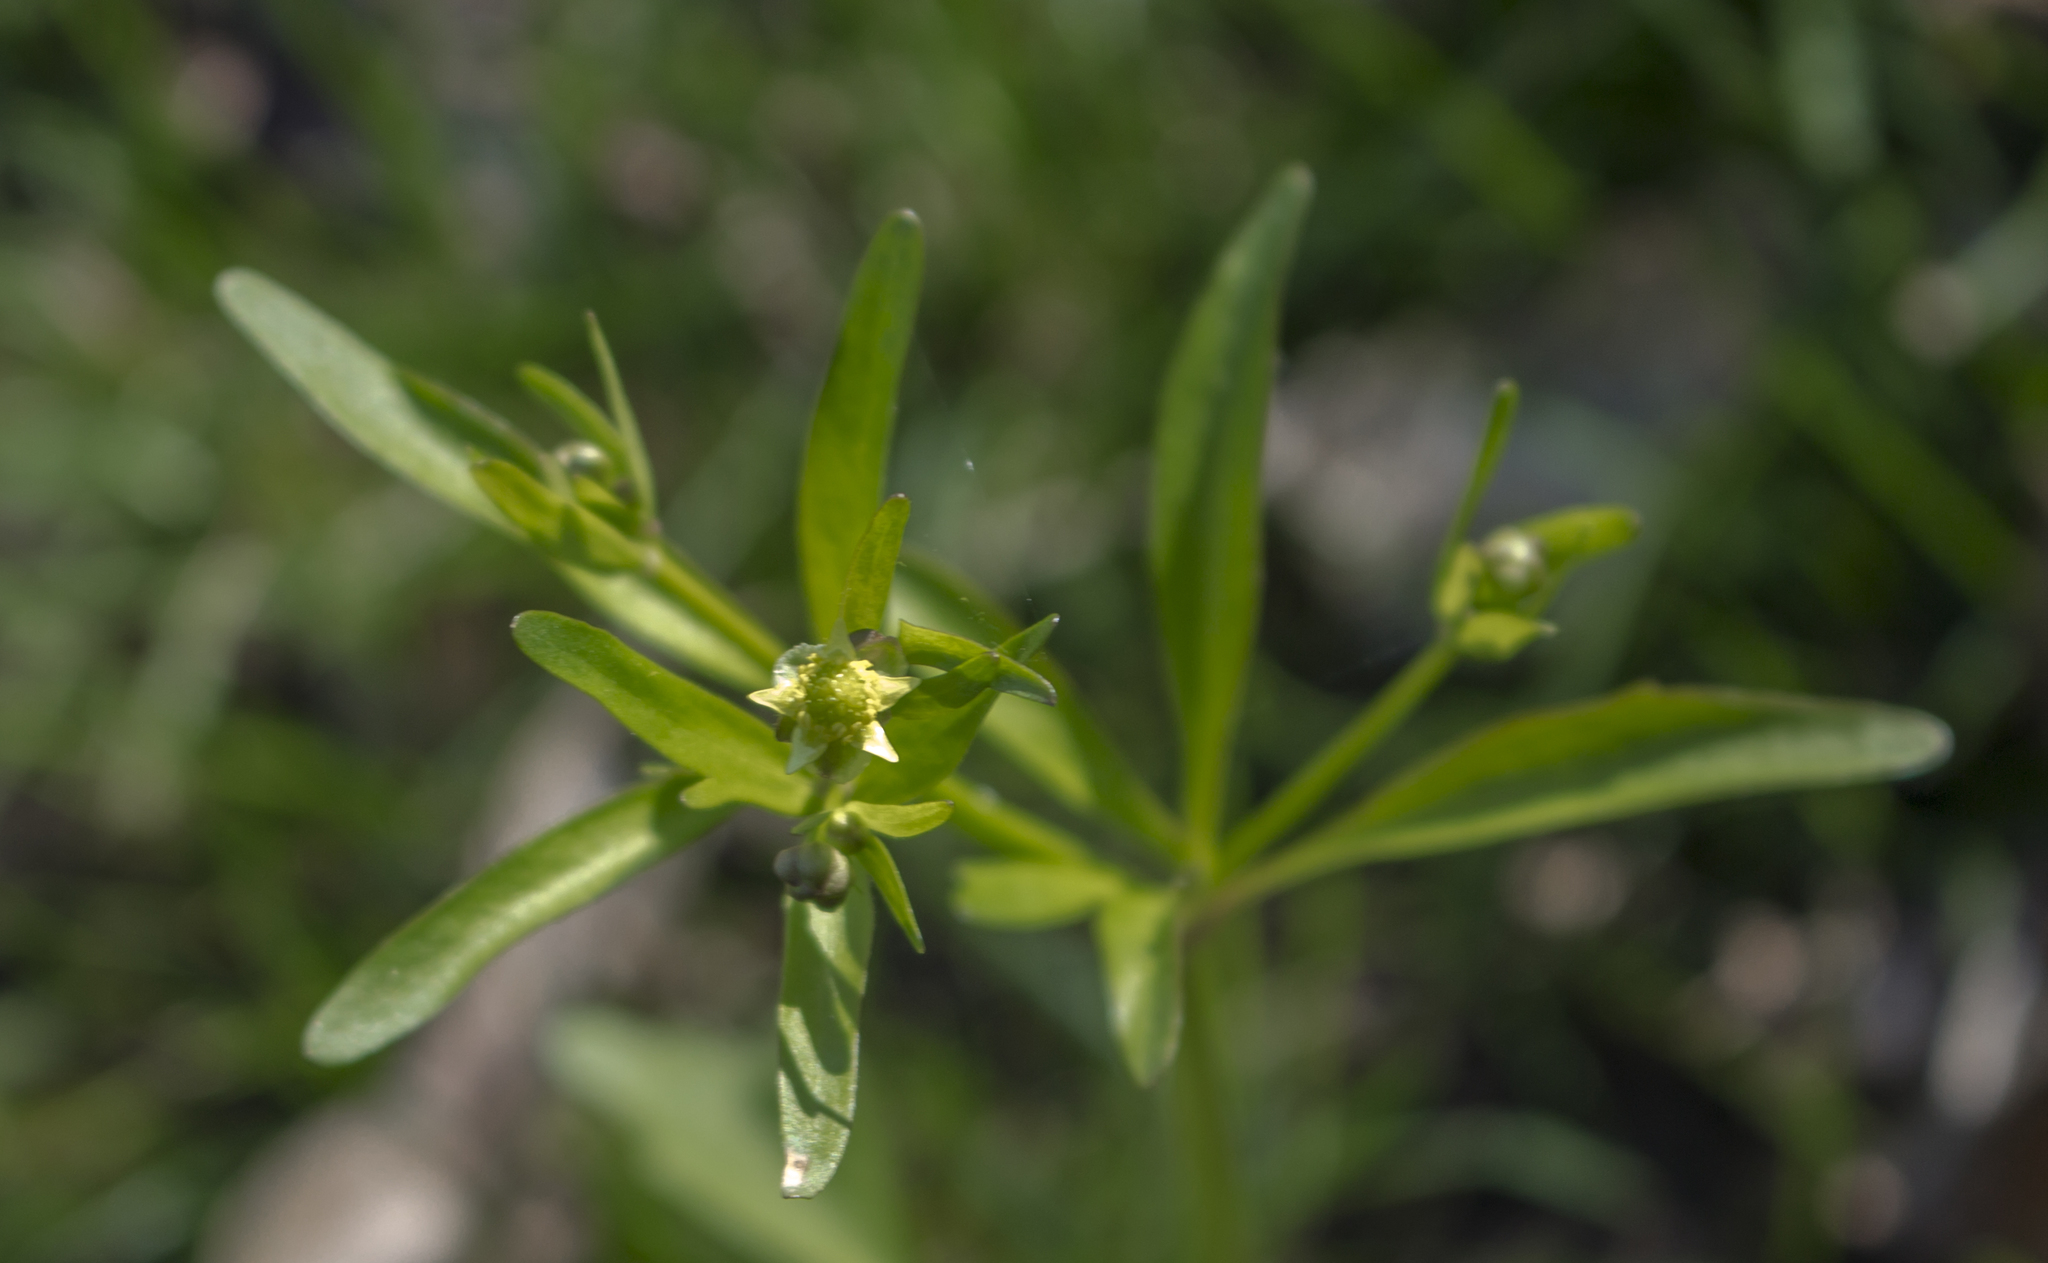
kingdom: Plantae
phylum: Tracheophyta
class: Magnoliopsida
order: Ranunculales
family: Ranunculaceae
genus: Ranunculus
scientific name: Ranunculus abortivus
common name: Early wood buttercup
